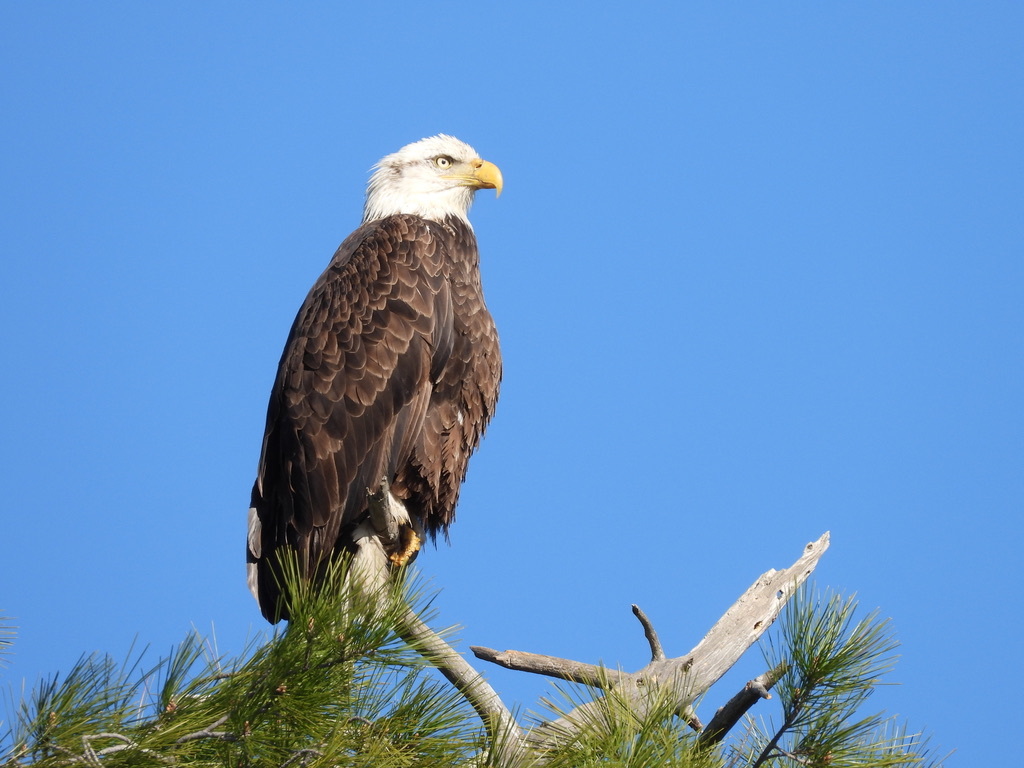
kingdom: Animalia
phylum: Chordata
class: Aves
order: Accipitriformes
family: Accipitridae
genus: Haliaeetus
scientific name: Haliaeetus leucocephalus
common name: Bald eagle
